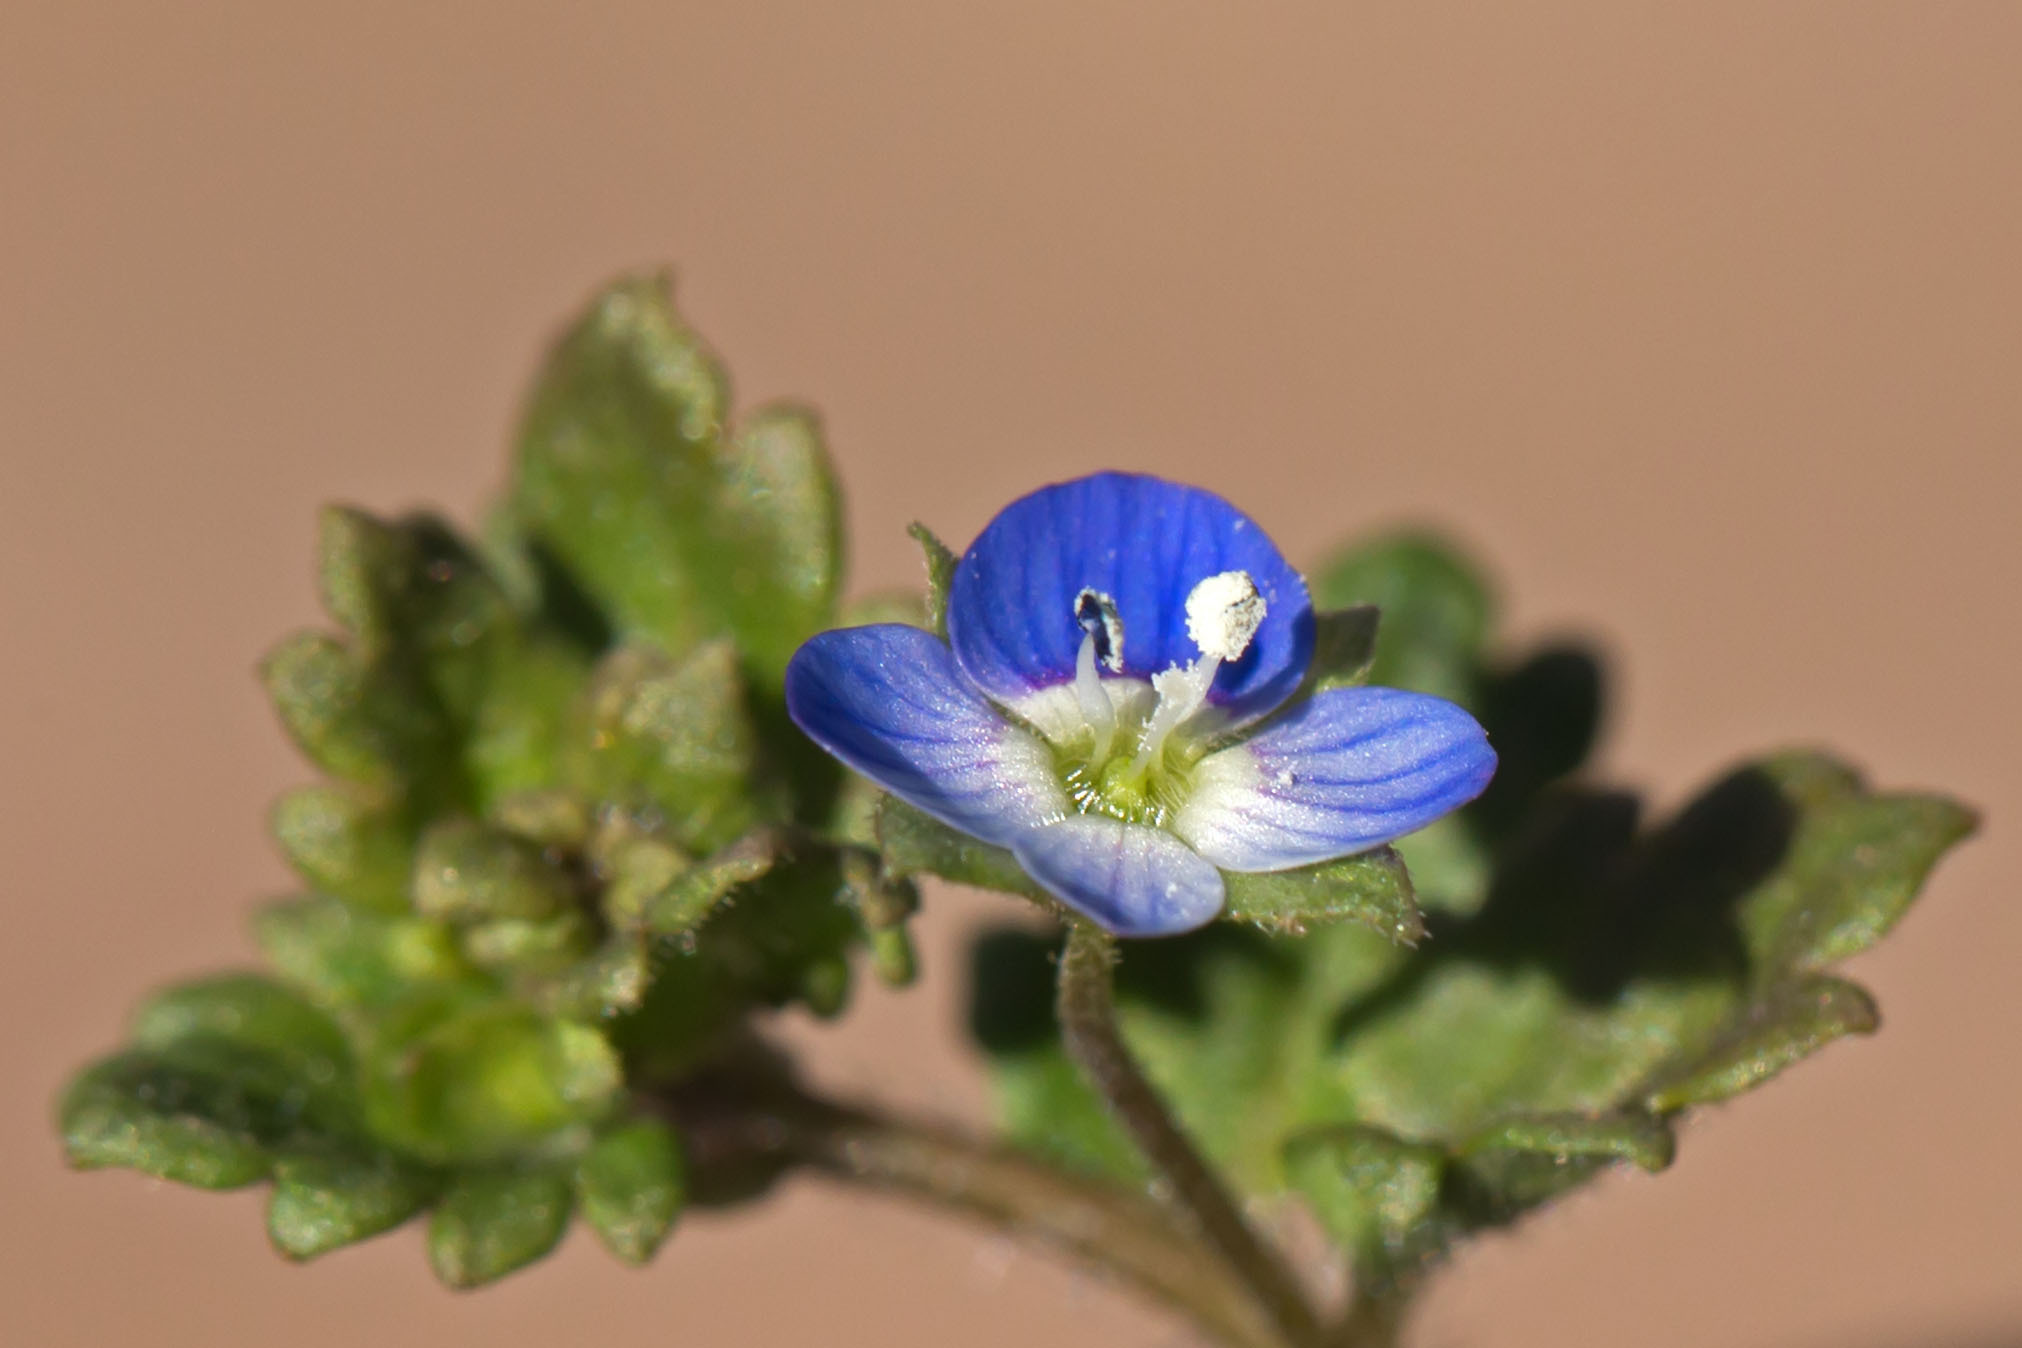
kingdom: Plantae
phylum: Tracheophyta
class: Magnoliopsida
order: Lamiales
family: Plantaginaceae
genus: Veronica
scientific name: Veronica polita
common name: Grey field-speedwell
